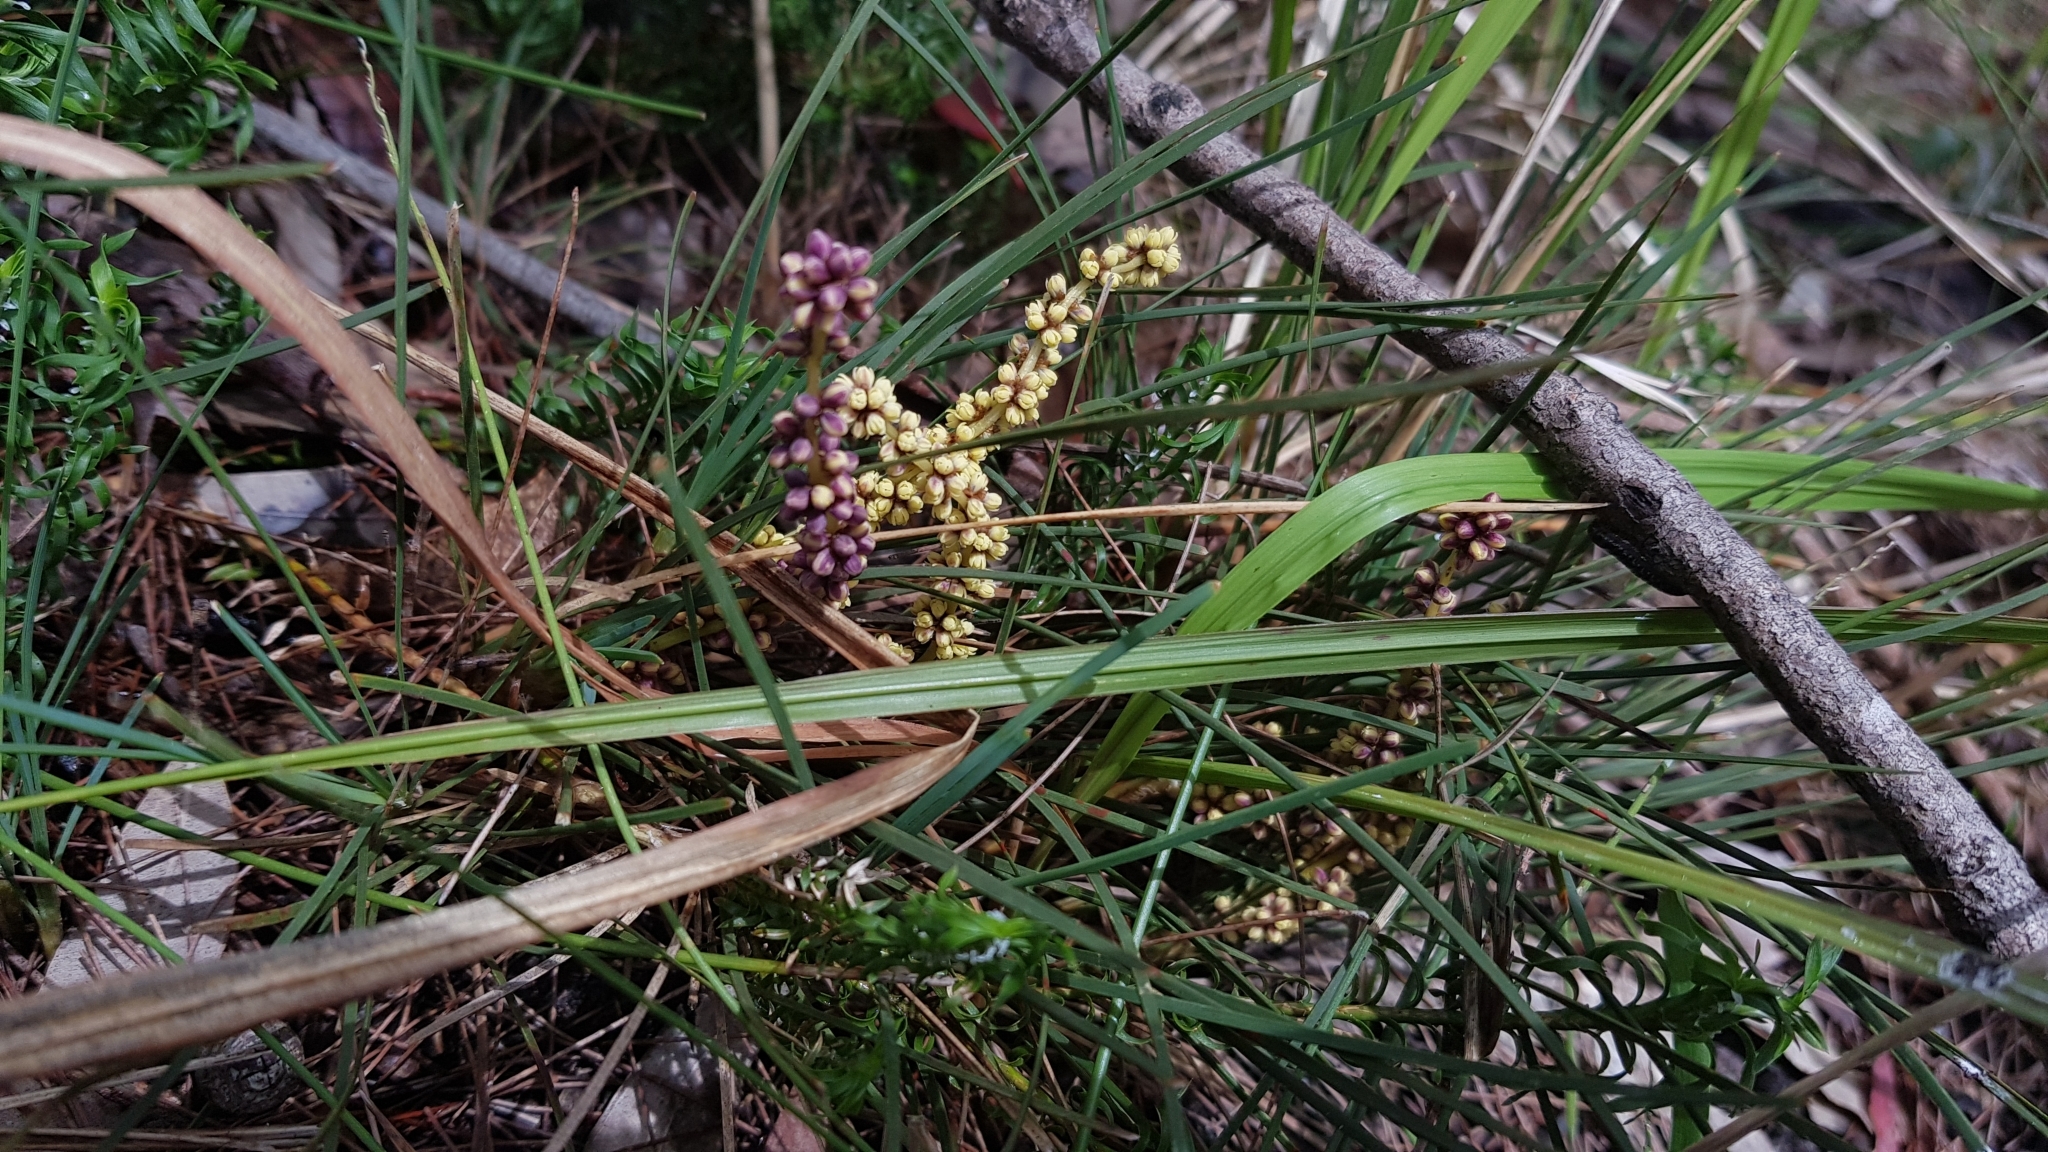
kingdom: Plantae
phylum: Tracheophyta
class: Liliopsida
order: Asparagales
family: Asparagaceae
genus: Lomandra
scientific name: Lomandra glauca
